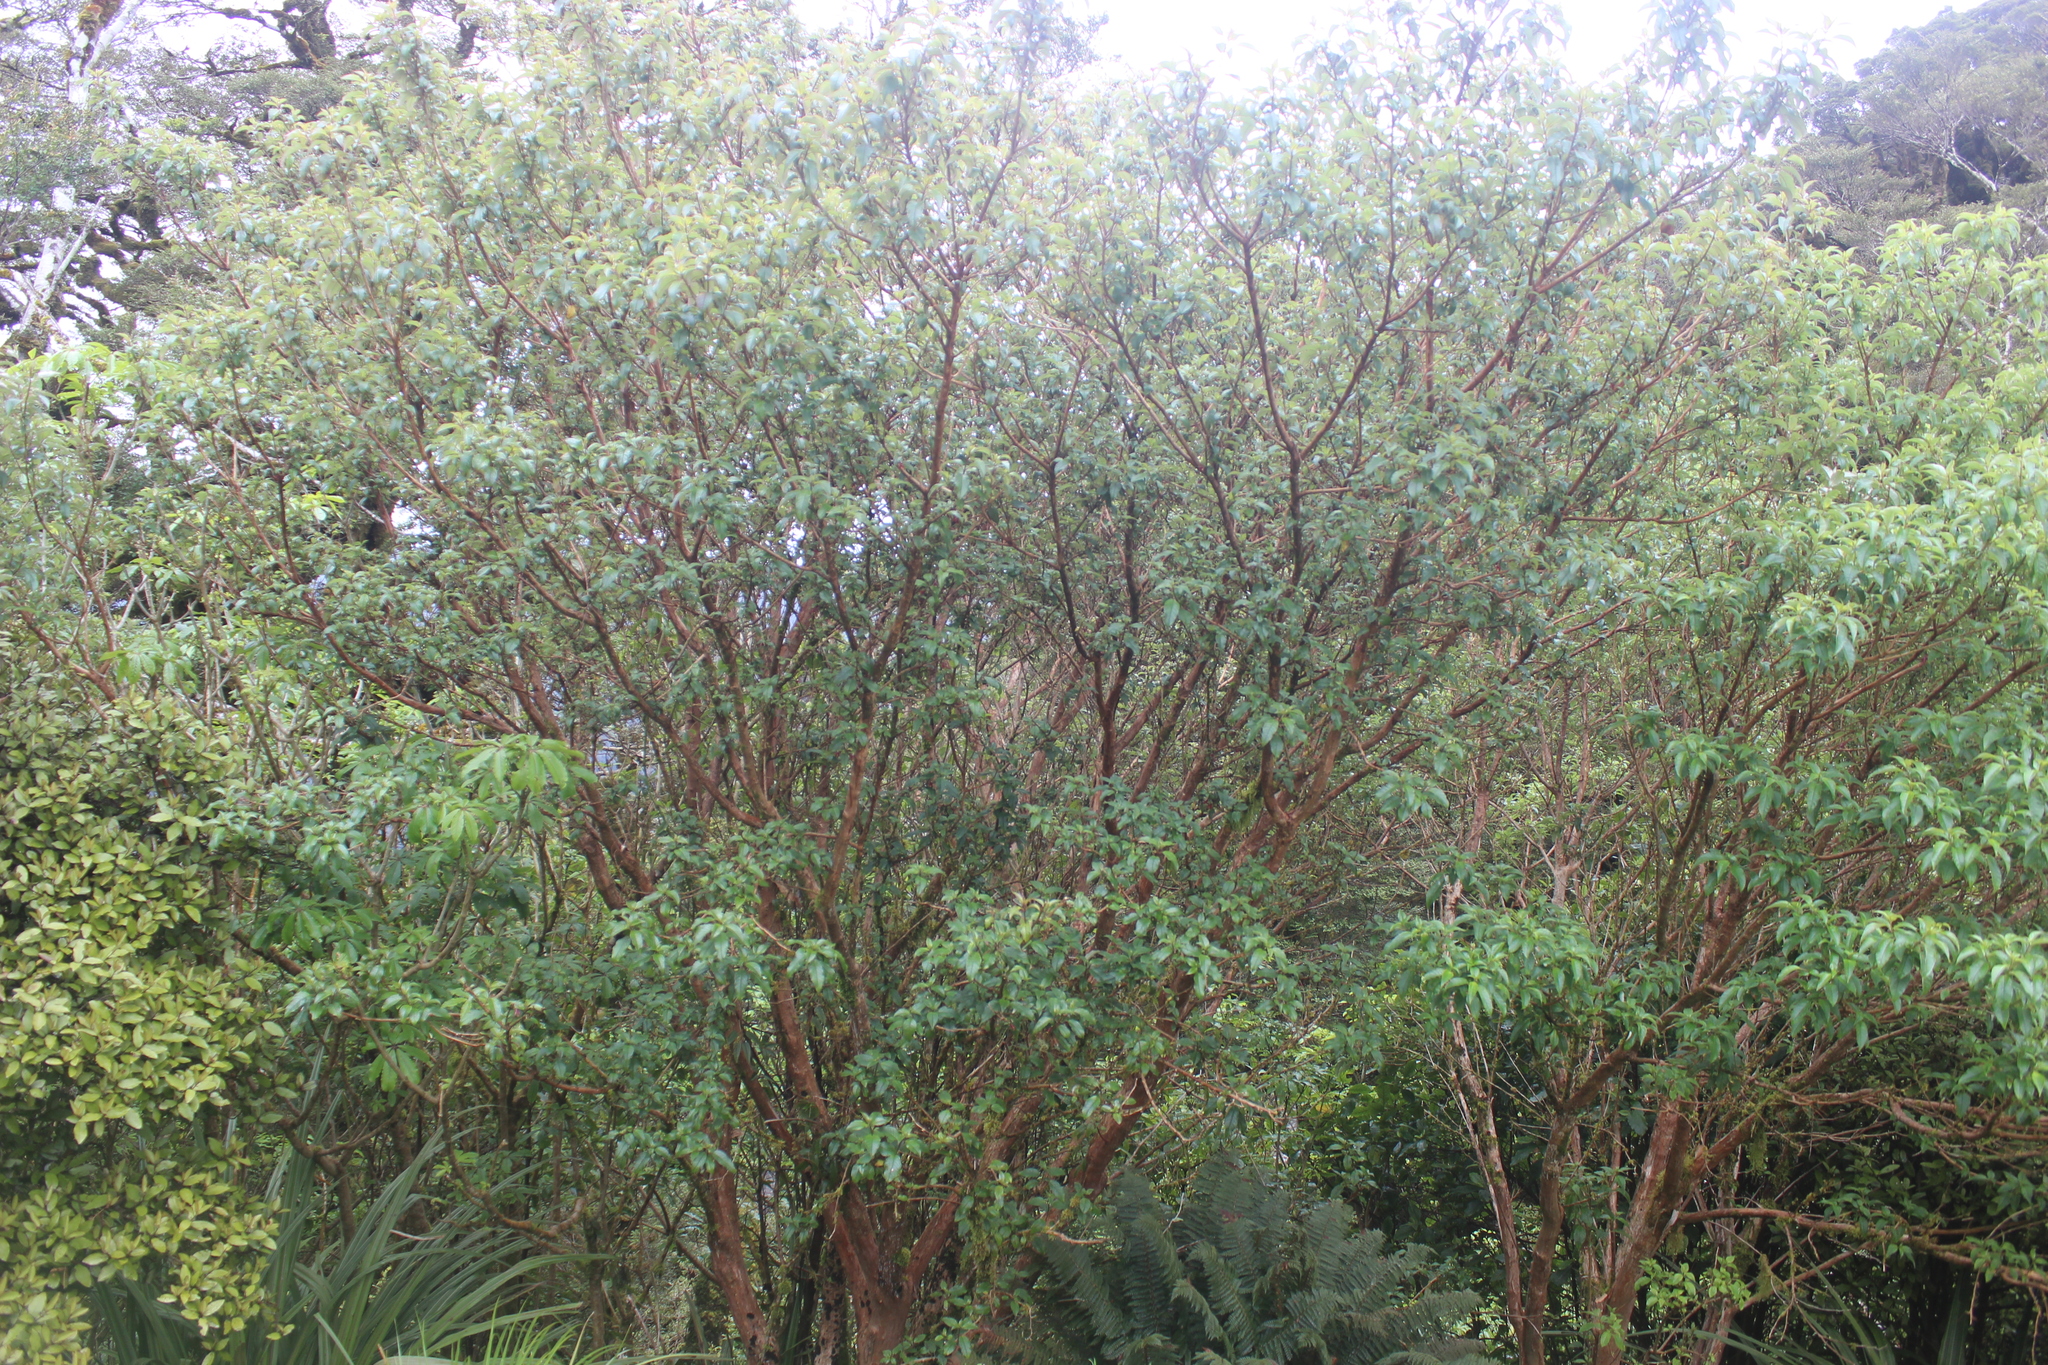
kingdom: Plantae
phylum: Tracheophyta
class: Magnoliopsida
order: Myrtales
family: Onagraceae
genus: Fuchsia
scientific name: Fuchsia excorticata
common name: Tree fuchsia
